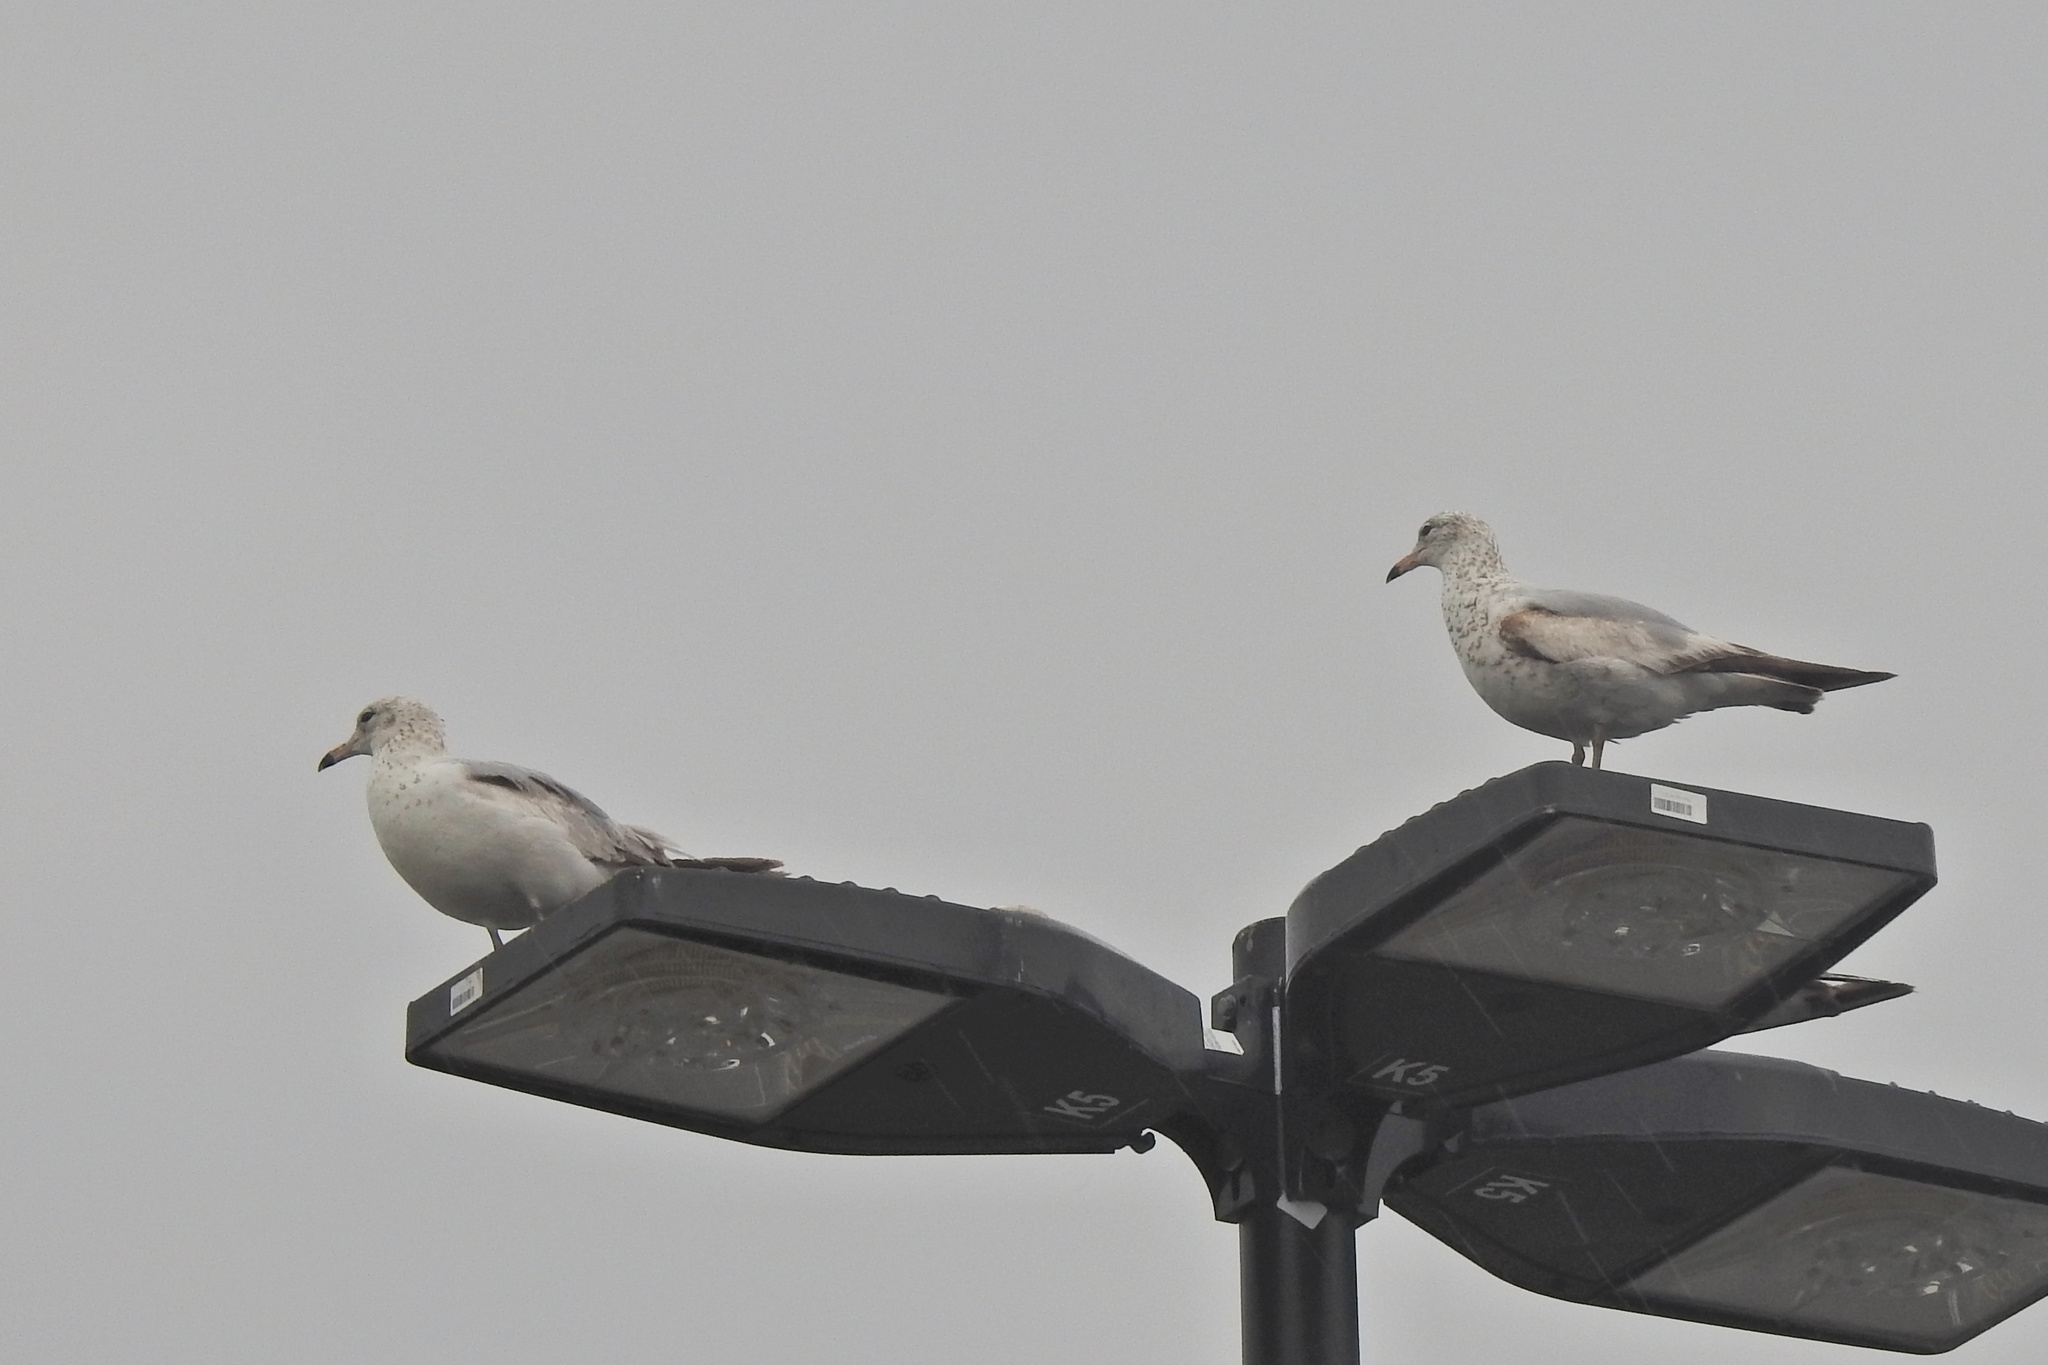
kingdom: Animalia
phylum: Chordata
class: Aves
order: Charadriiformes
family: Laridae
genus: Larus
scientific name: Larus delawarensis
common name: Ring-billed gull
